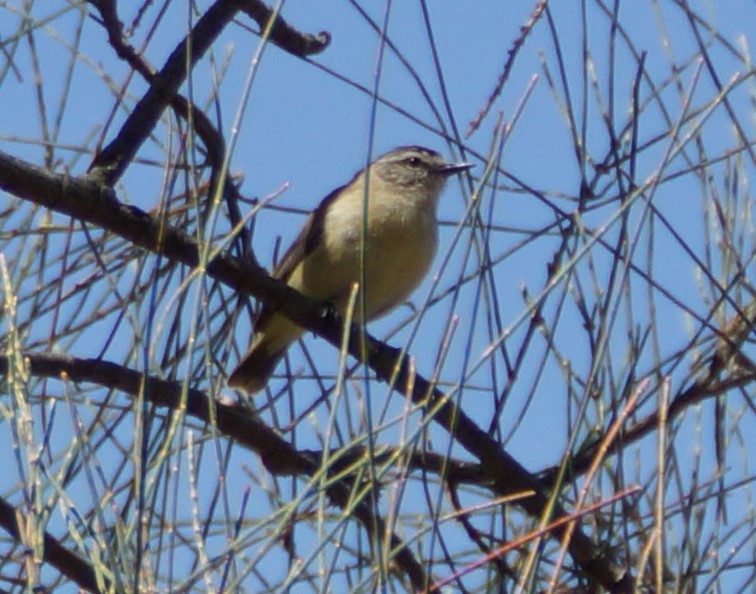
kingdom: Animalia
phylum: Chordata
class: Aves
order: Passeriformes
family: Acanthizidae
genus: Acanthiza
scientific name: Acanthiza chrysorrhoa
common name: Yellow-rumped thornbill
